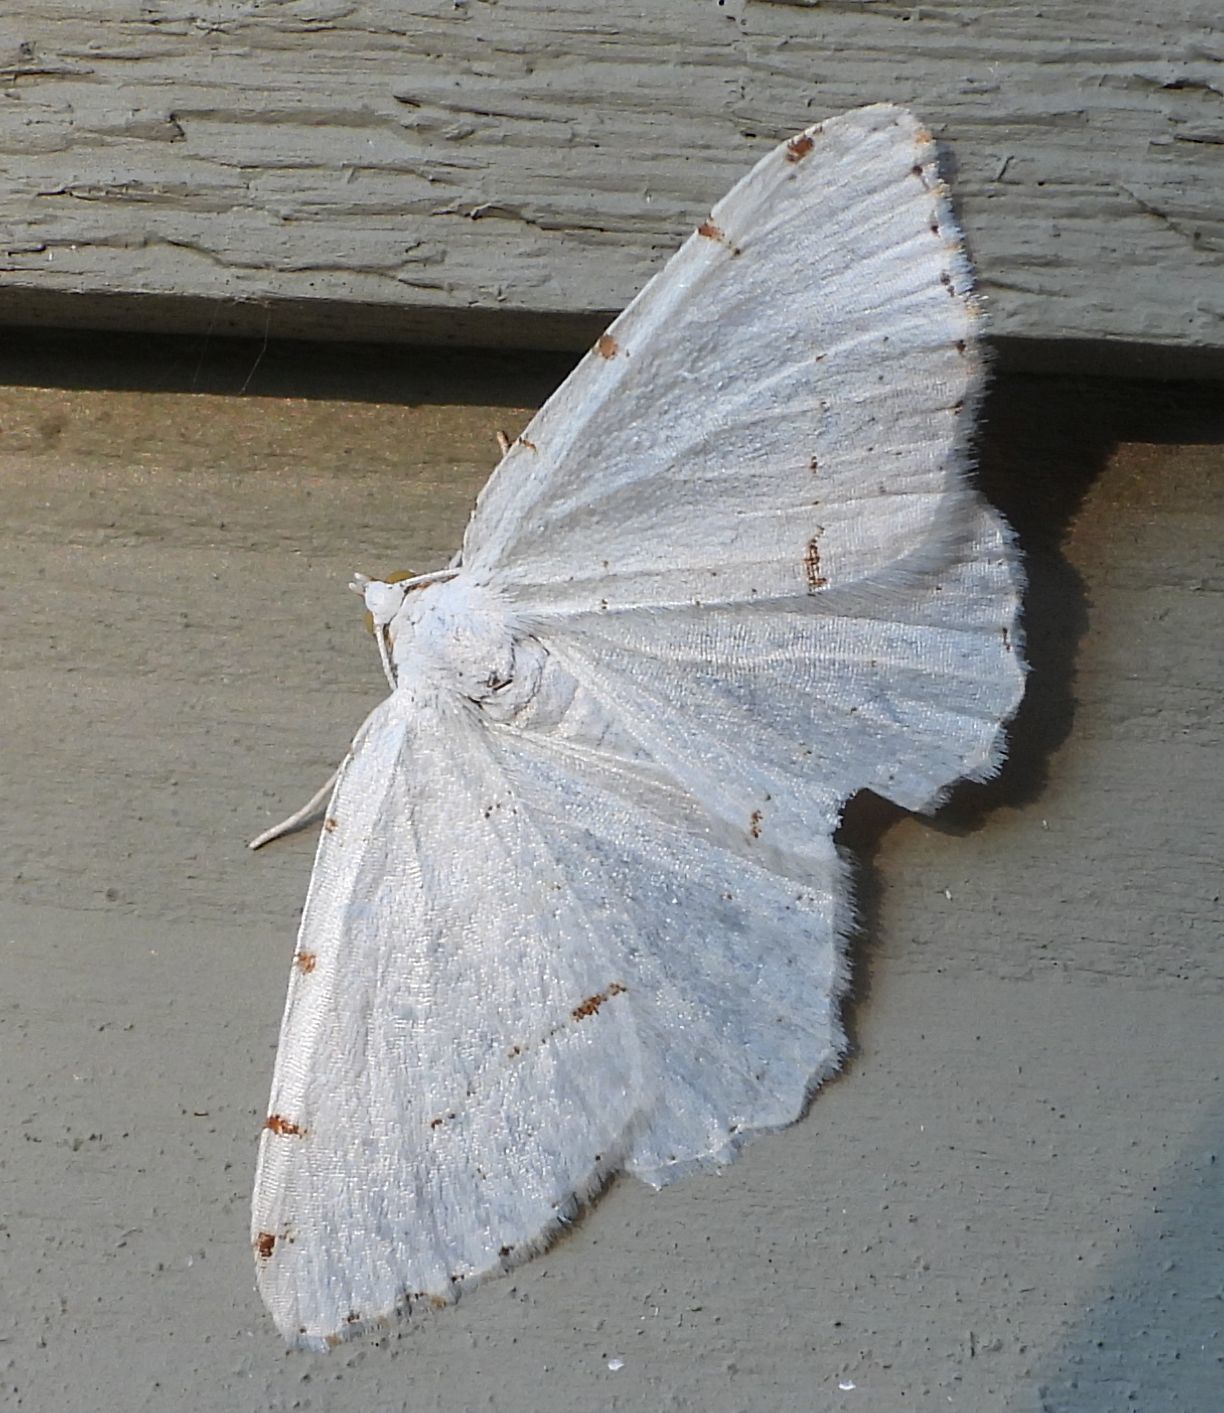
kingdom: Animalia
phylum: Arthropoda
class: Insecta
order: Lepidoptera
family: Geometridae
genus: Macaria
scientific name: Macaria pustularia
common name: Lesser maple spanworm moth
